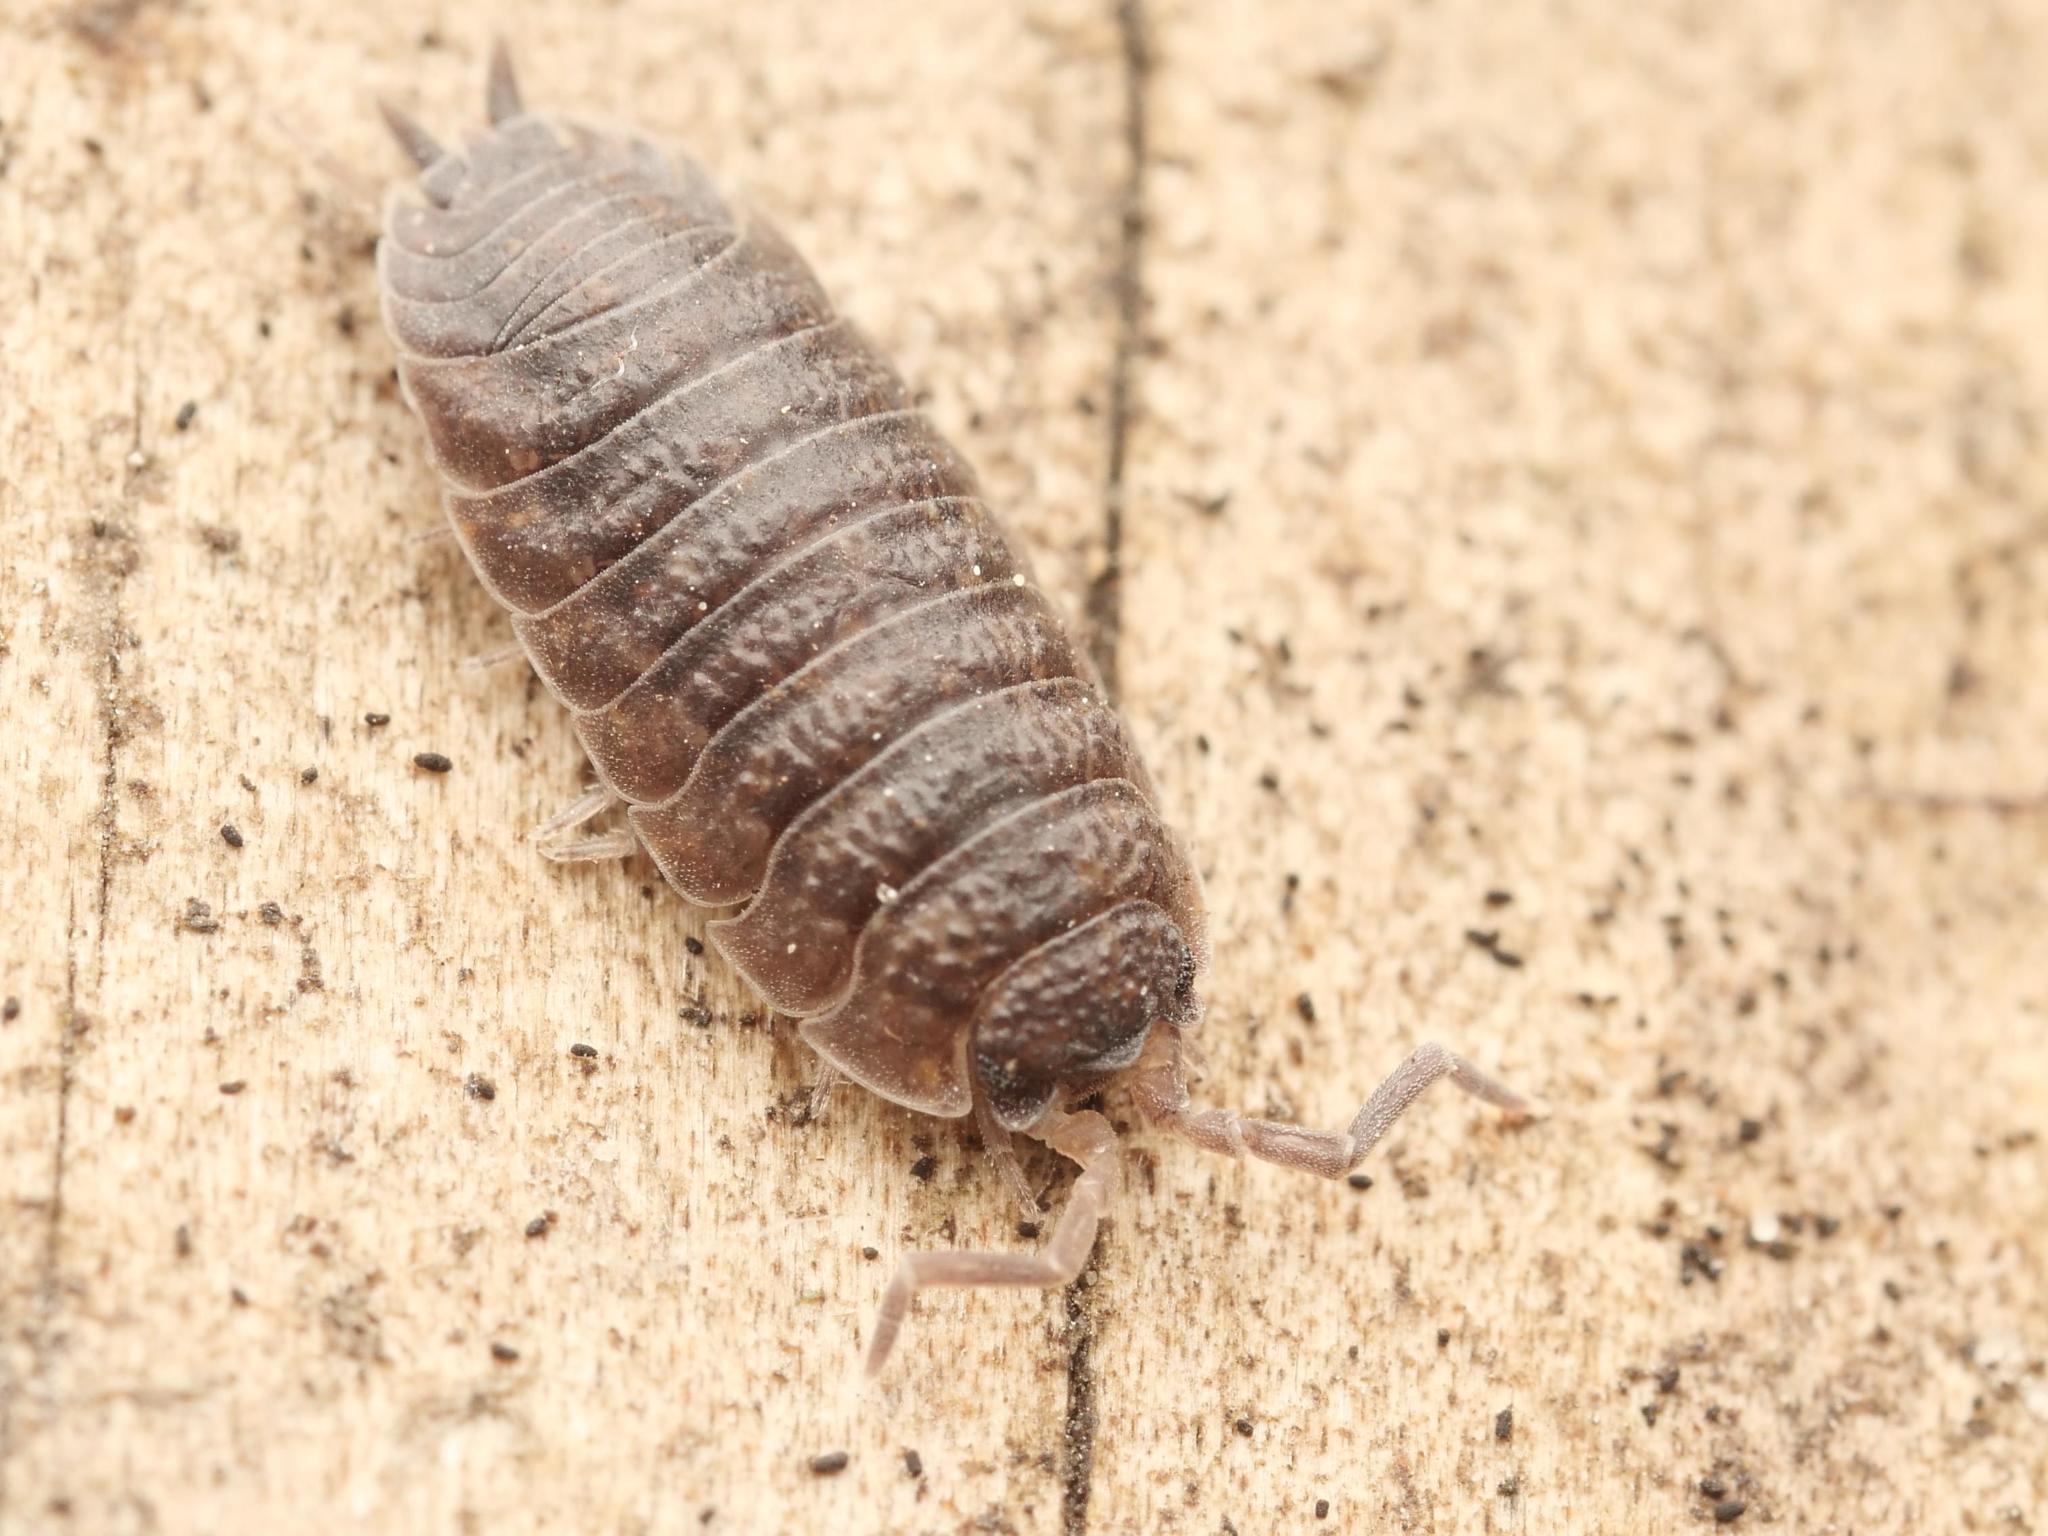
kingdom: Animalia
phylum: Arthropoda
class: Malacostraca
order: Isopoda
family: Porcellionidae
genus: Porcellio
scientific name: Porcellio scaber
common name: Common rough woodlouse
